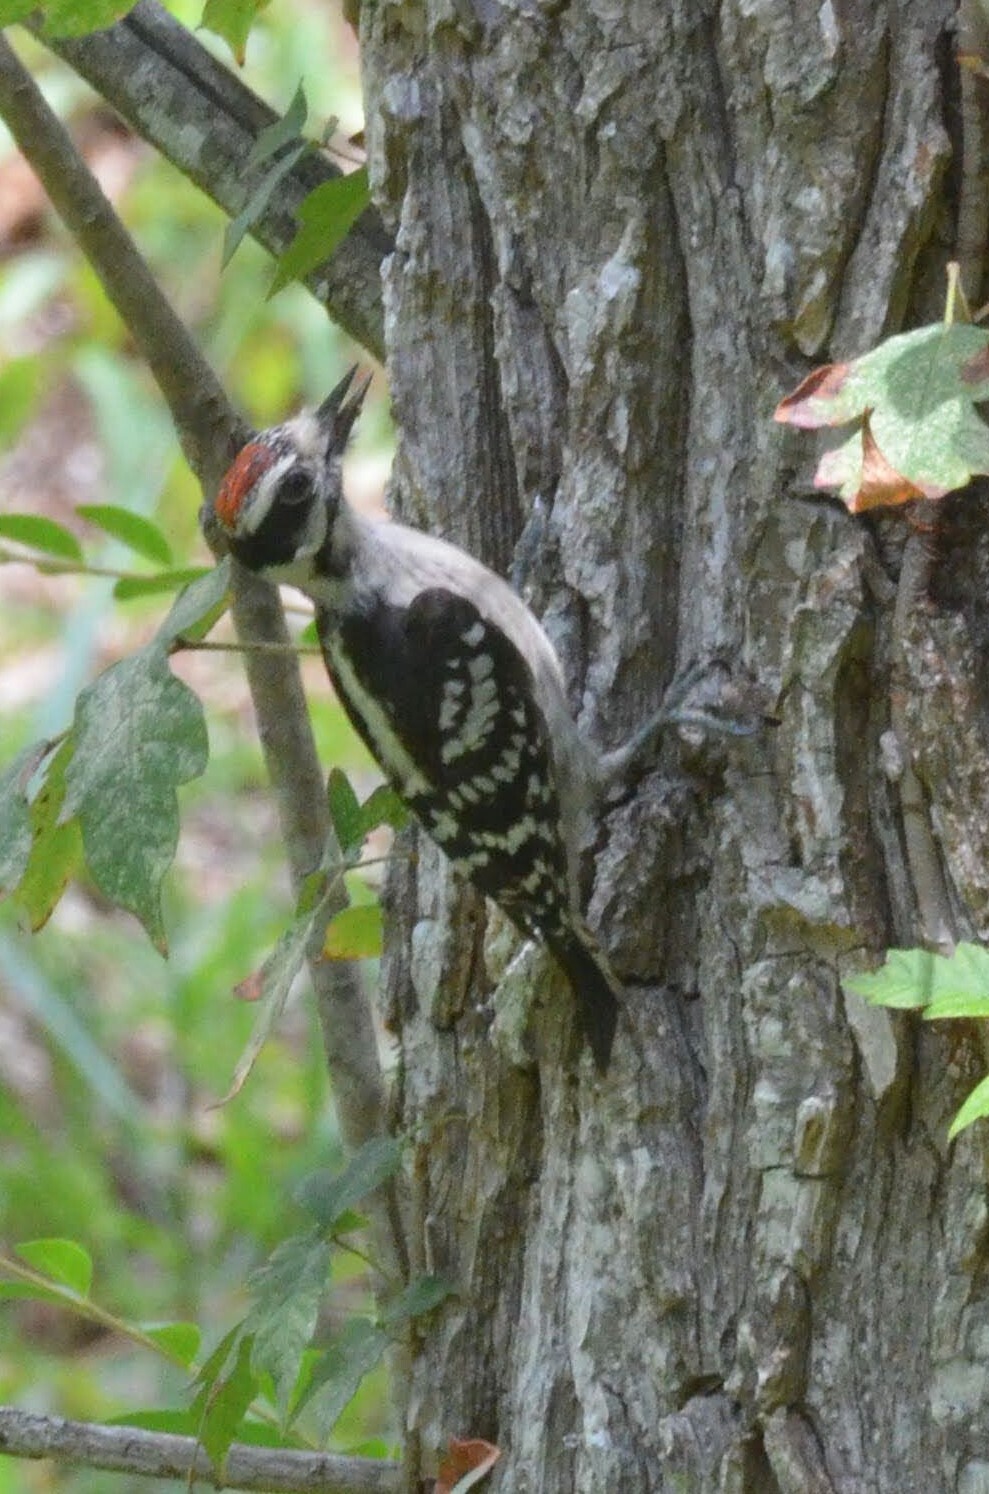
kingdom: Animalia
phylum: Chordata
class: Aves
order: Piciformes
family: Picidae
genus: Dryobates
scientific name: Dryobates pubescens
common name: Downy woodpecker
